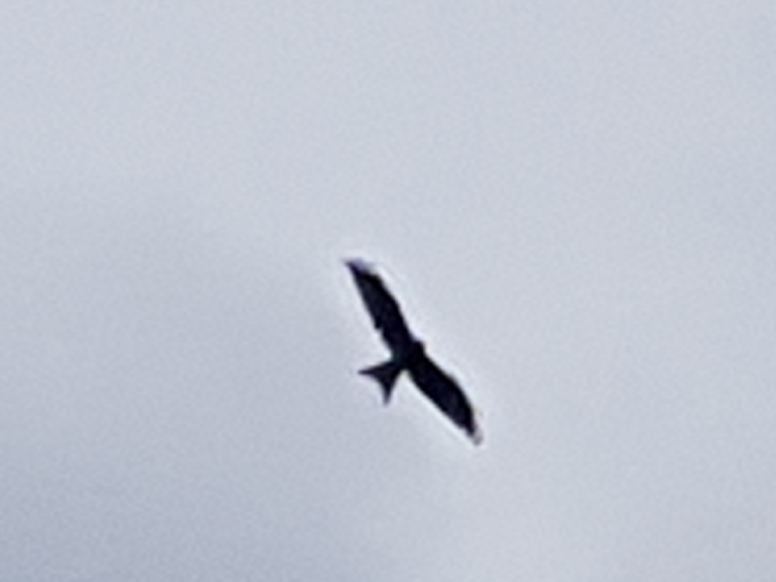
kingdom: Animalia
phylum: Chordata
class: Aves
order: Accipitriformes
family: Accipitridae
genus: Milvus
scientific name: Milvus milvus
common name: Red kite
